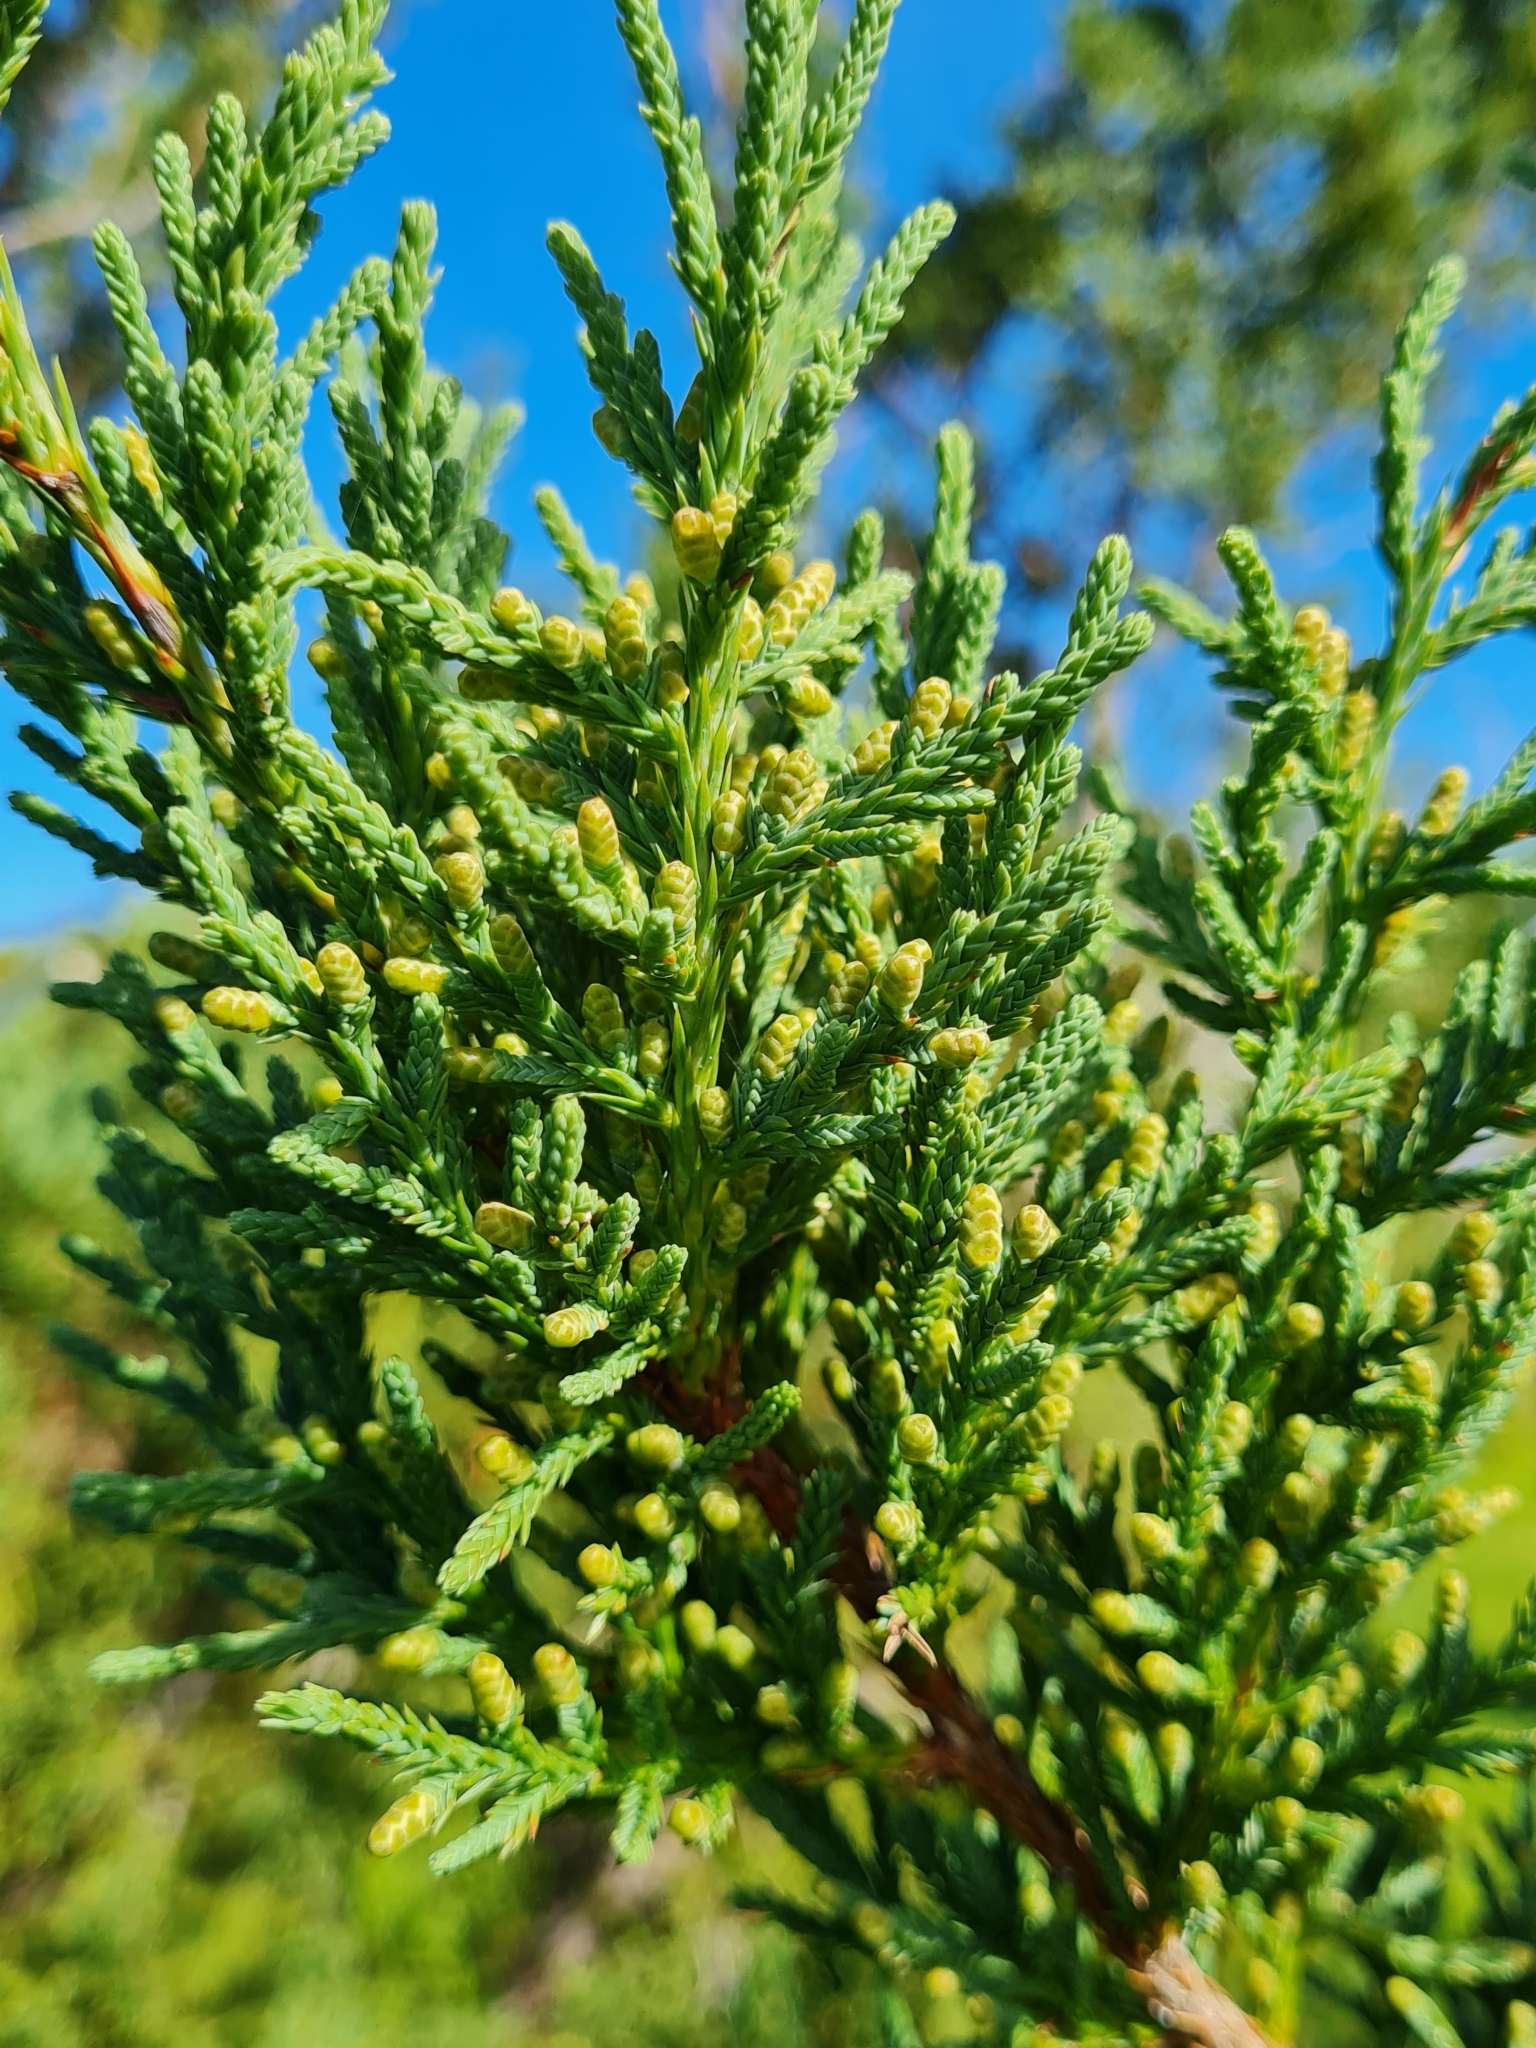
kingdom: Plantae
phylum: Tracheophyta
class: Pinopsida
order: Pinales
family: Cupressaceae
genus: Juniperus
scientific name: Juniperus bermudiana
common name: Bermuda juniper
